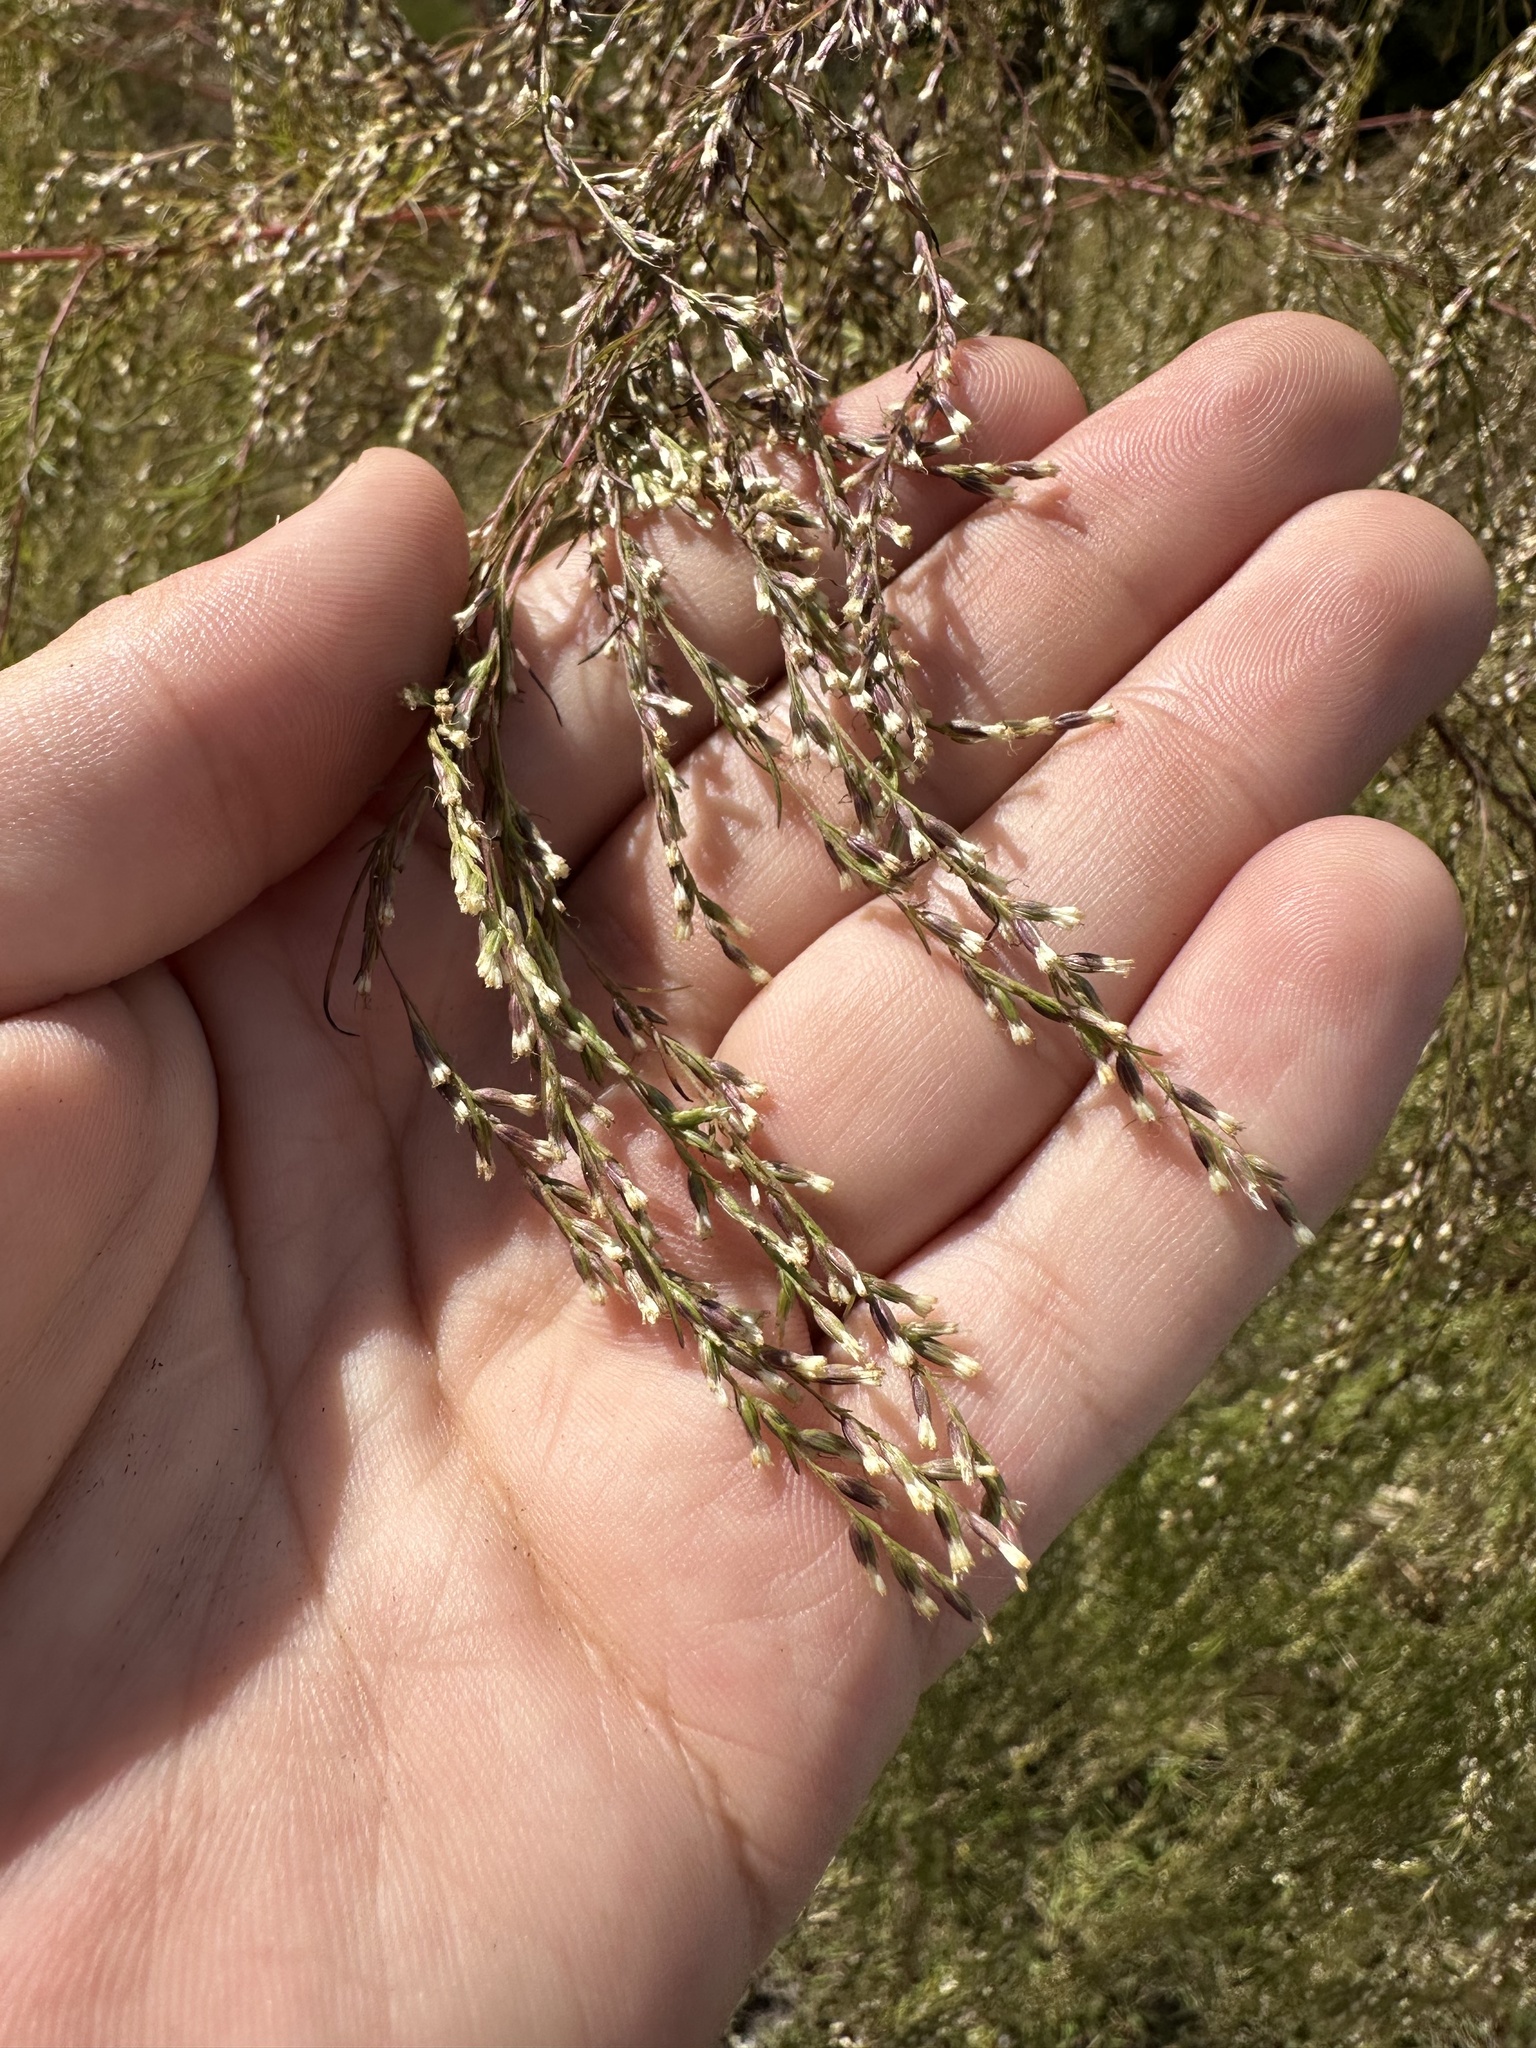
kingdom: Plantae
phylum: Tracheophyta
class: Magnoliopsida
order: Asterales
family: Asteraceae
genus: Eupatorium
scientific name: Eupatorium capillifolium
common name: Dog-fennel
